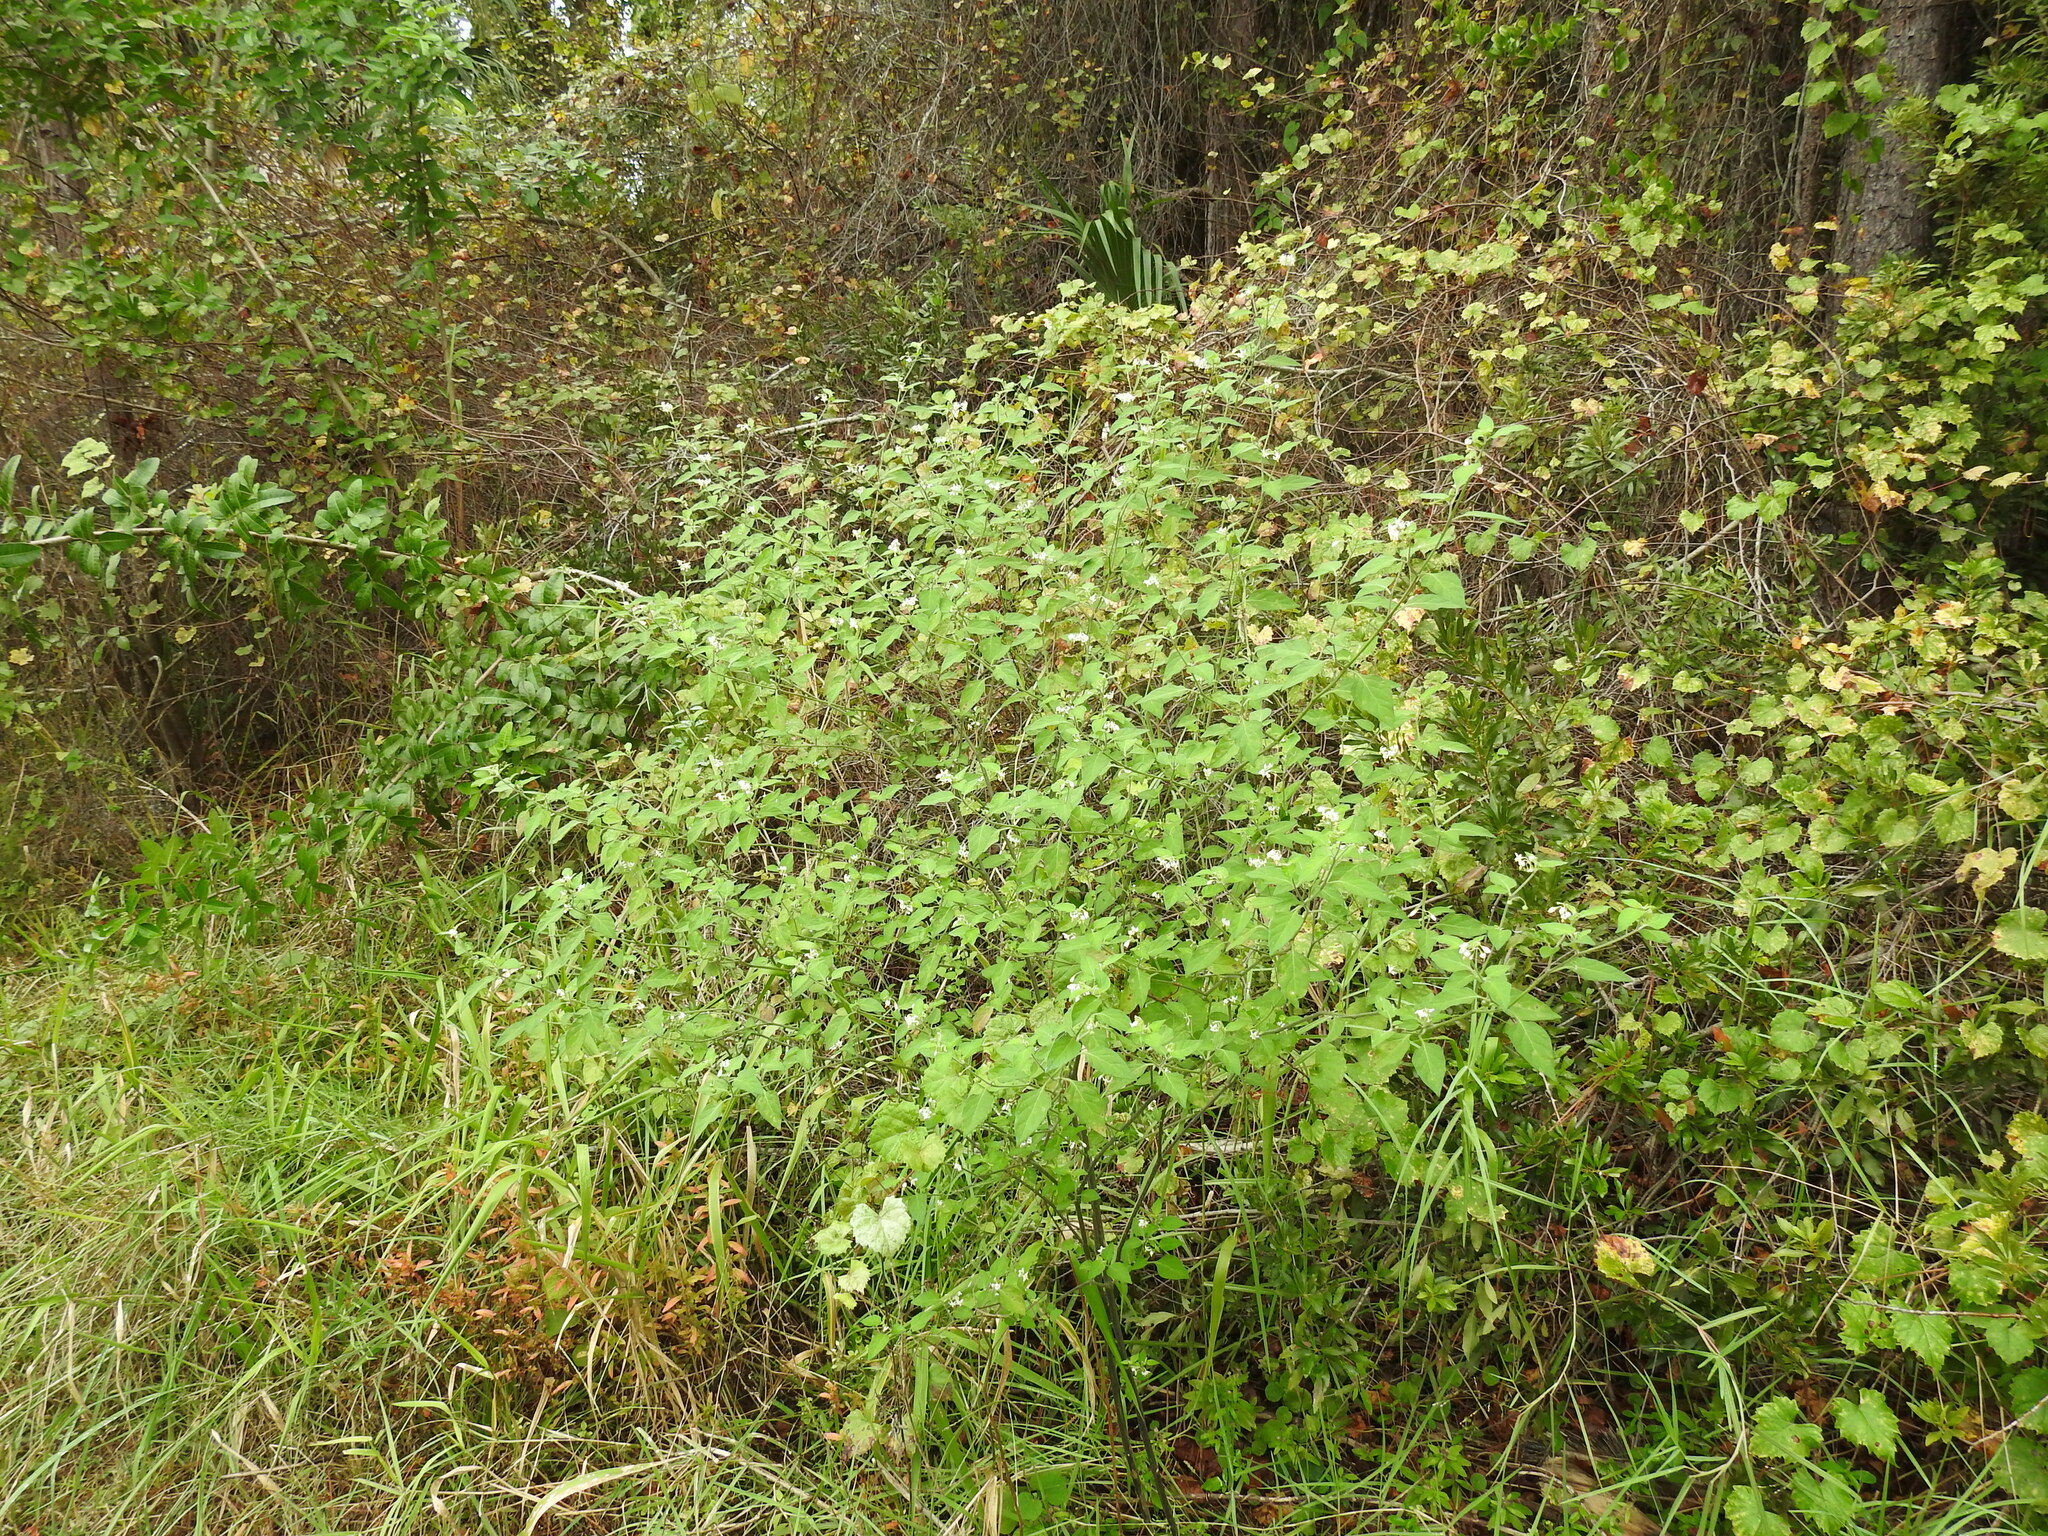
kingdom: Plantae
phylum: Tracheophyta
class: Magnoliopsida
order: Solanales
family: Solanaceae
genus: Solanum
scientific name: Solanum americanum
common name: American black nightshade
